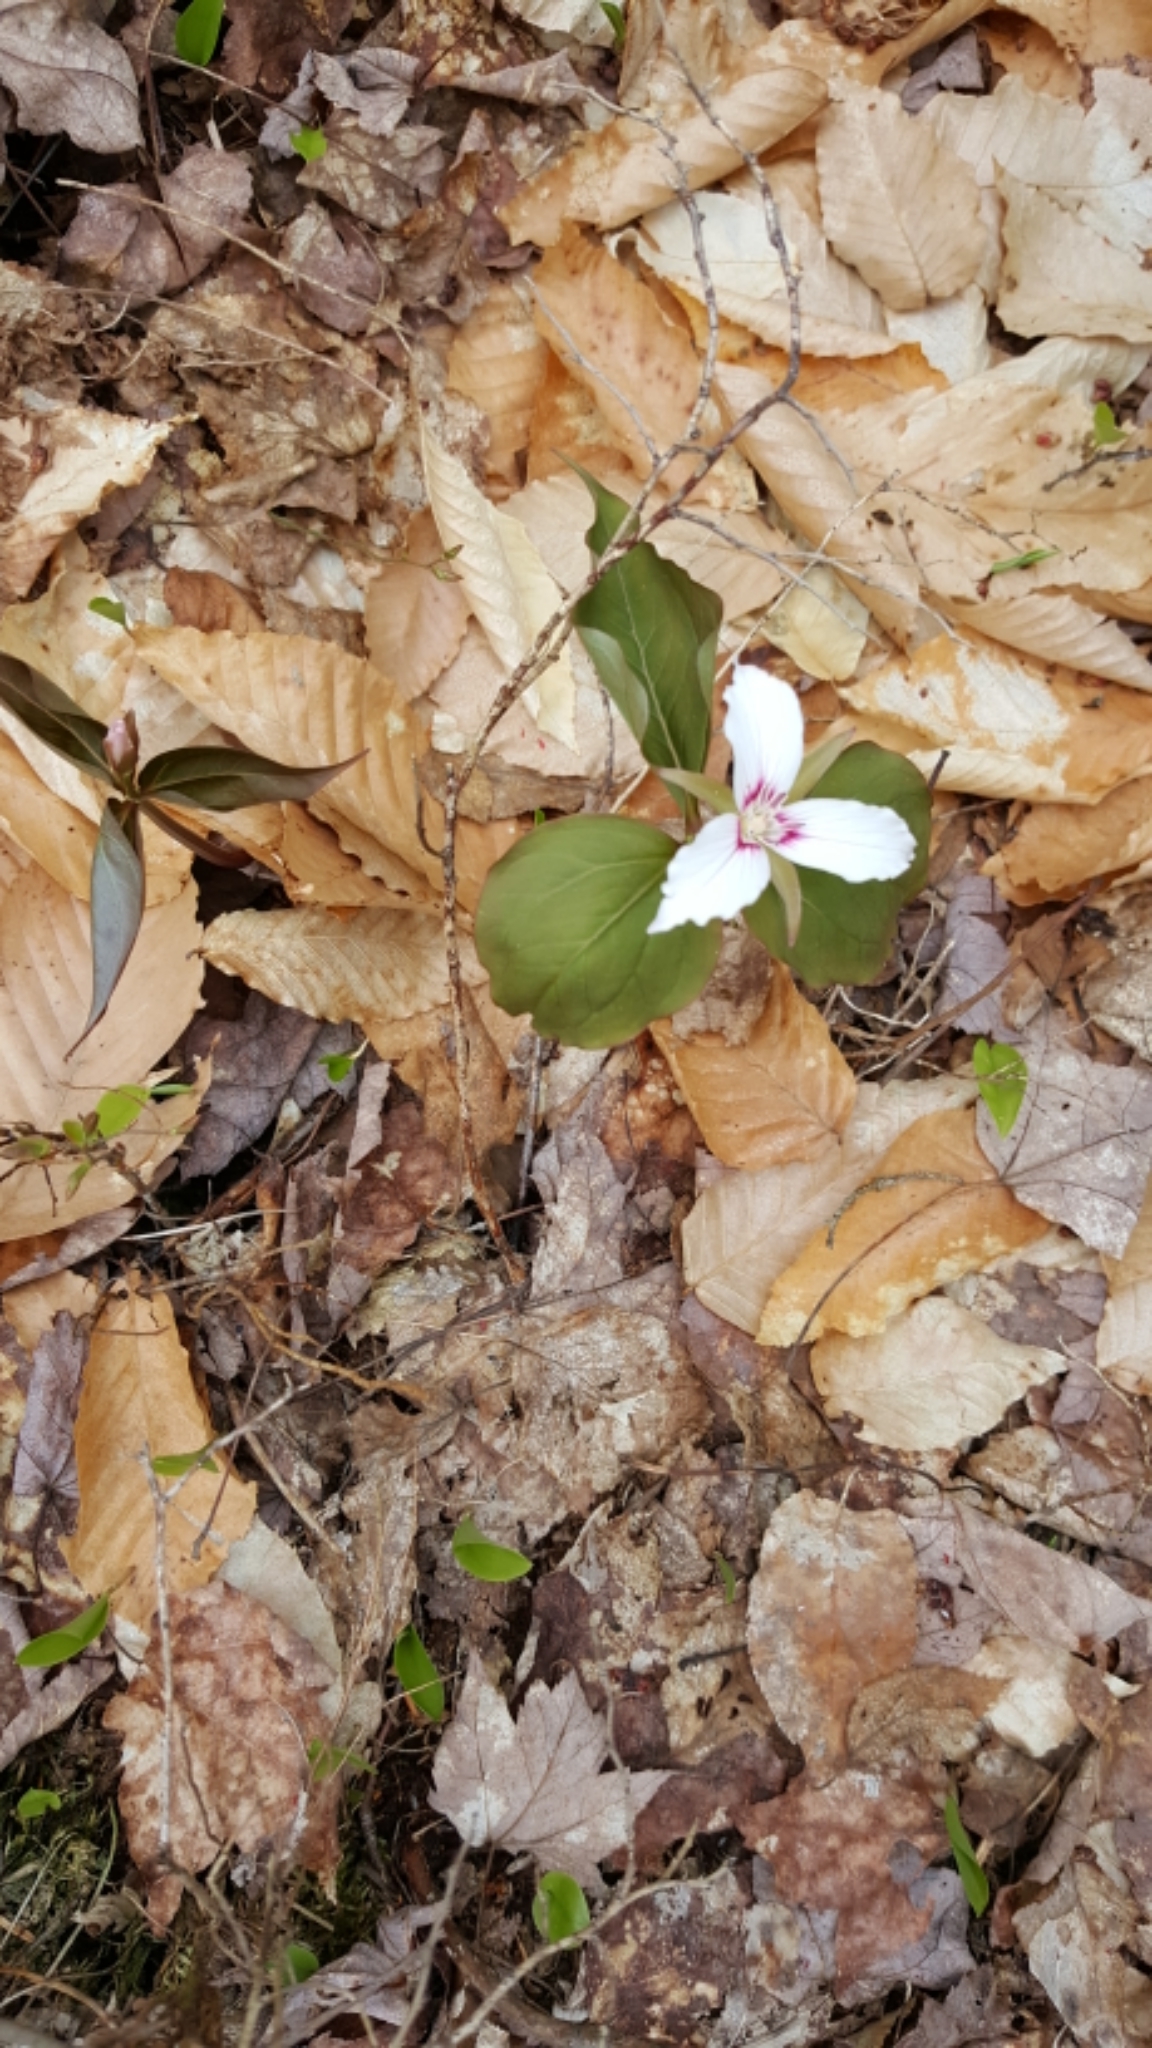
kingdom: Plantae
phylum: Tracheophyta
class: Liliopsida
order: Liliales
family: Melanthiaceae
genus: Trillium
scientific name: Trillium undulatum
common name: Paint trillium
